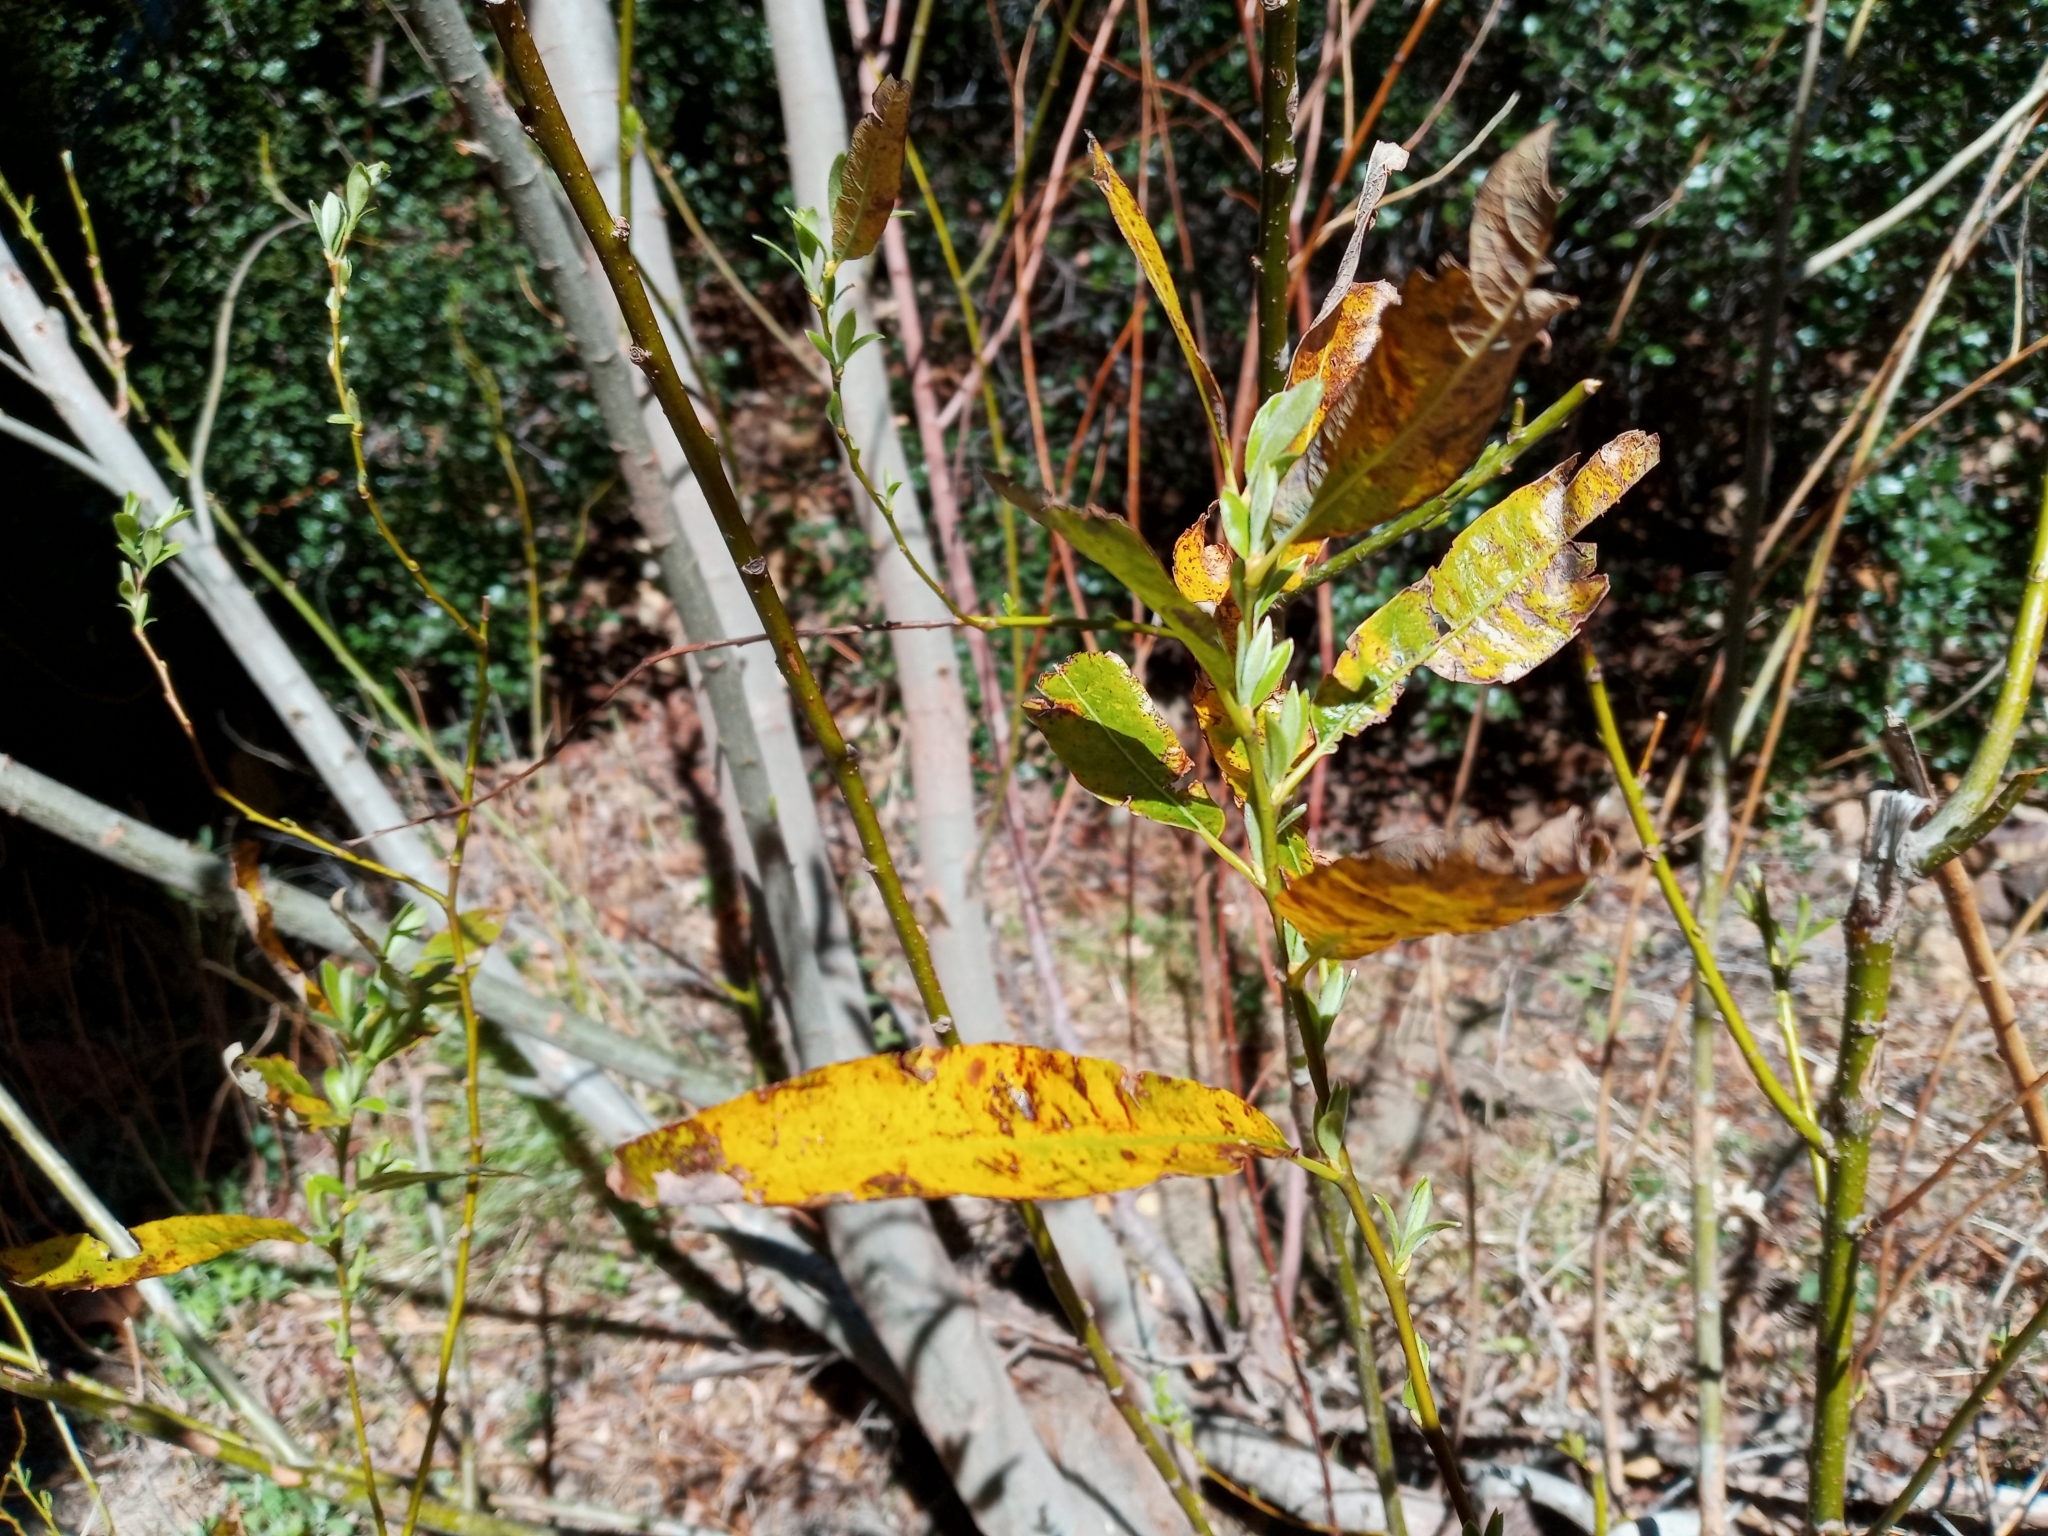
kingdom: Plantae
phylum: Tracheophyta
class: Magnoliopsida
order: Malpighiales
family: Salicaceae
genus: Salix
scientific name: Salix lasiolepis
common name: Arroyo willow
